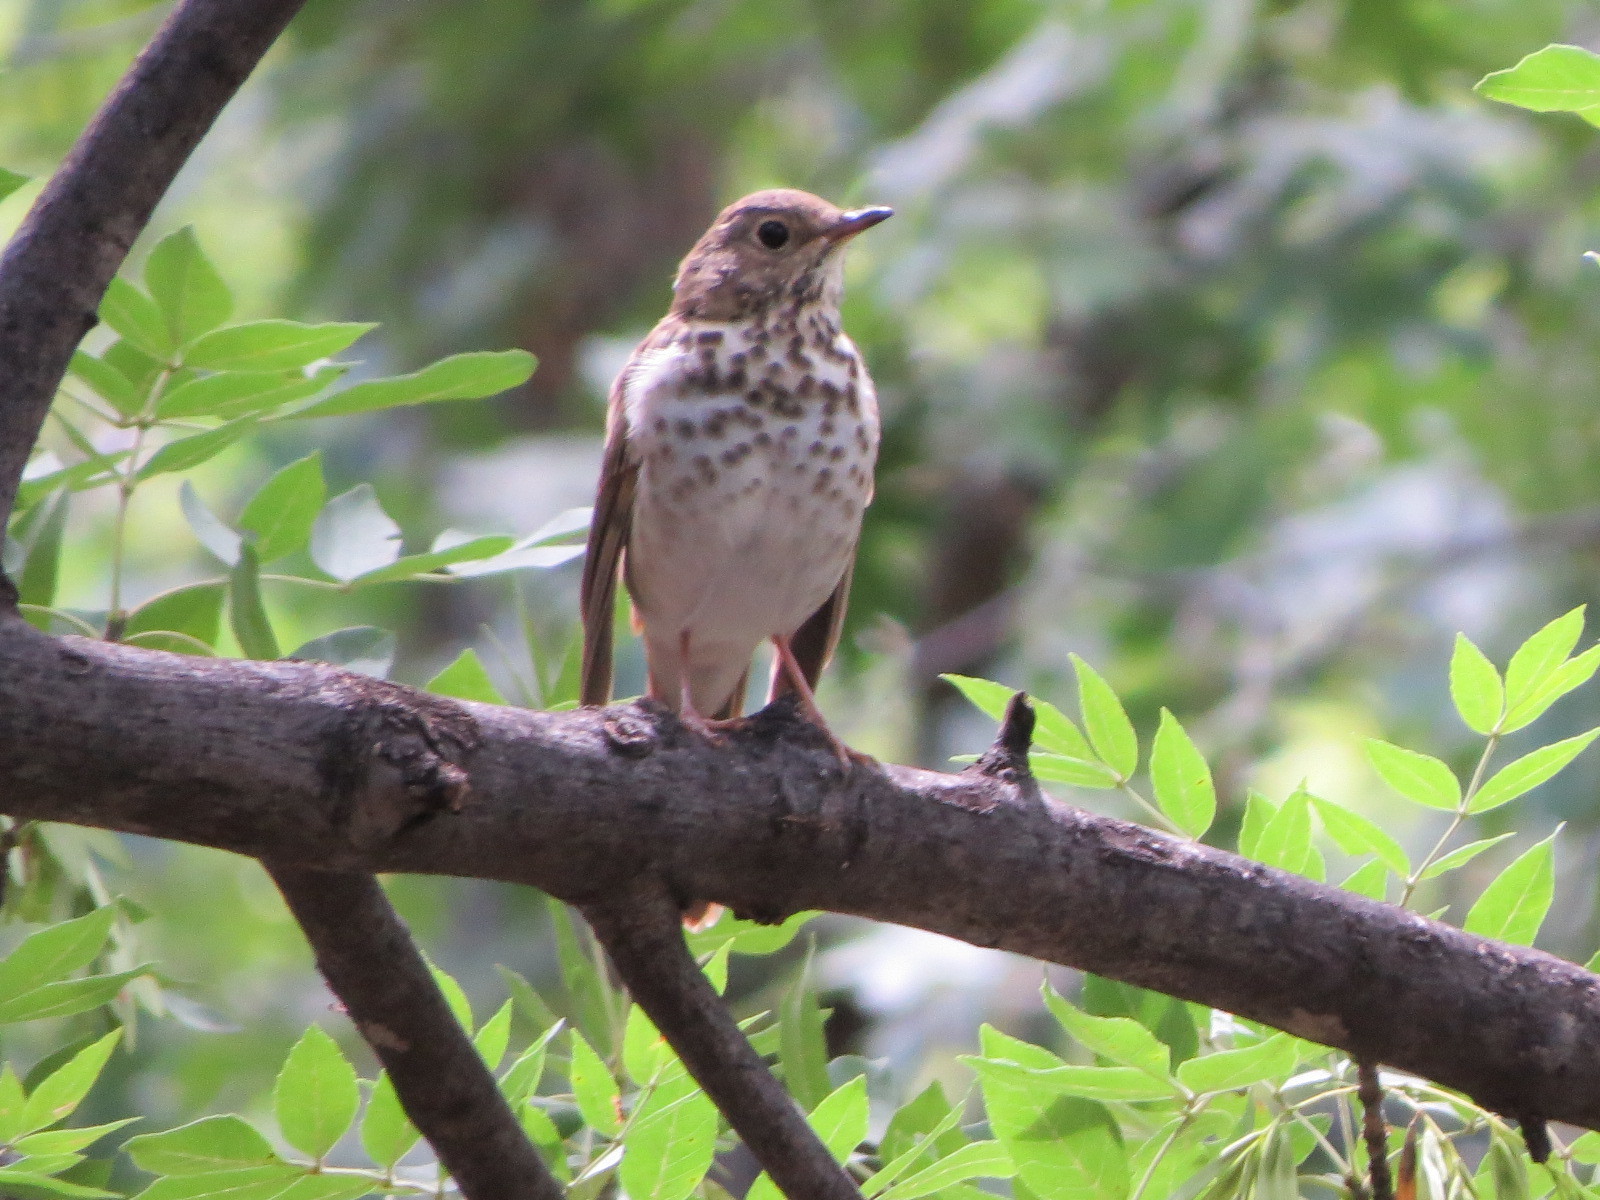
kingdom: Animalia
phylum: Chordata
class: Aves
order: Passeriformes
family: Turdidae
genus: Catharus
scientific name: Catharus guttatus
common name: Hermit thrush
